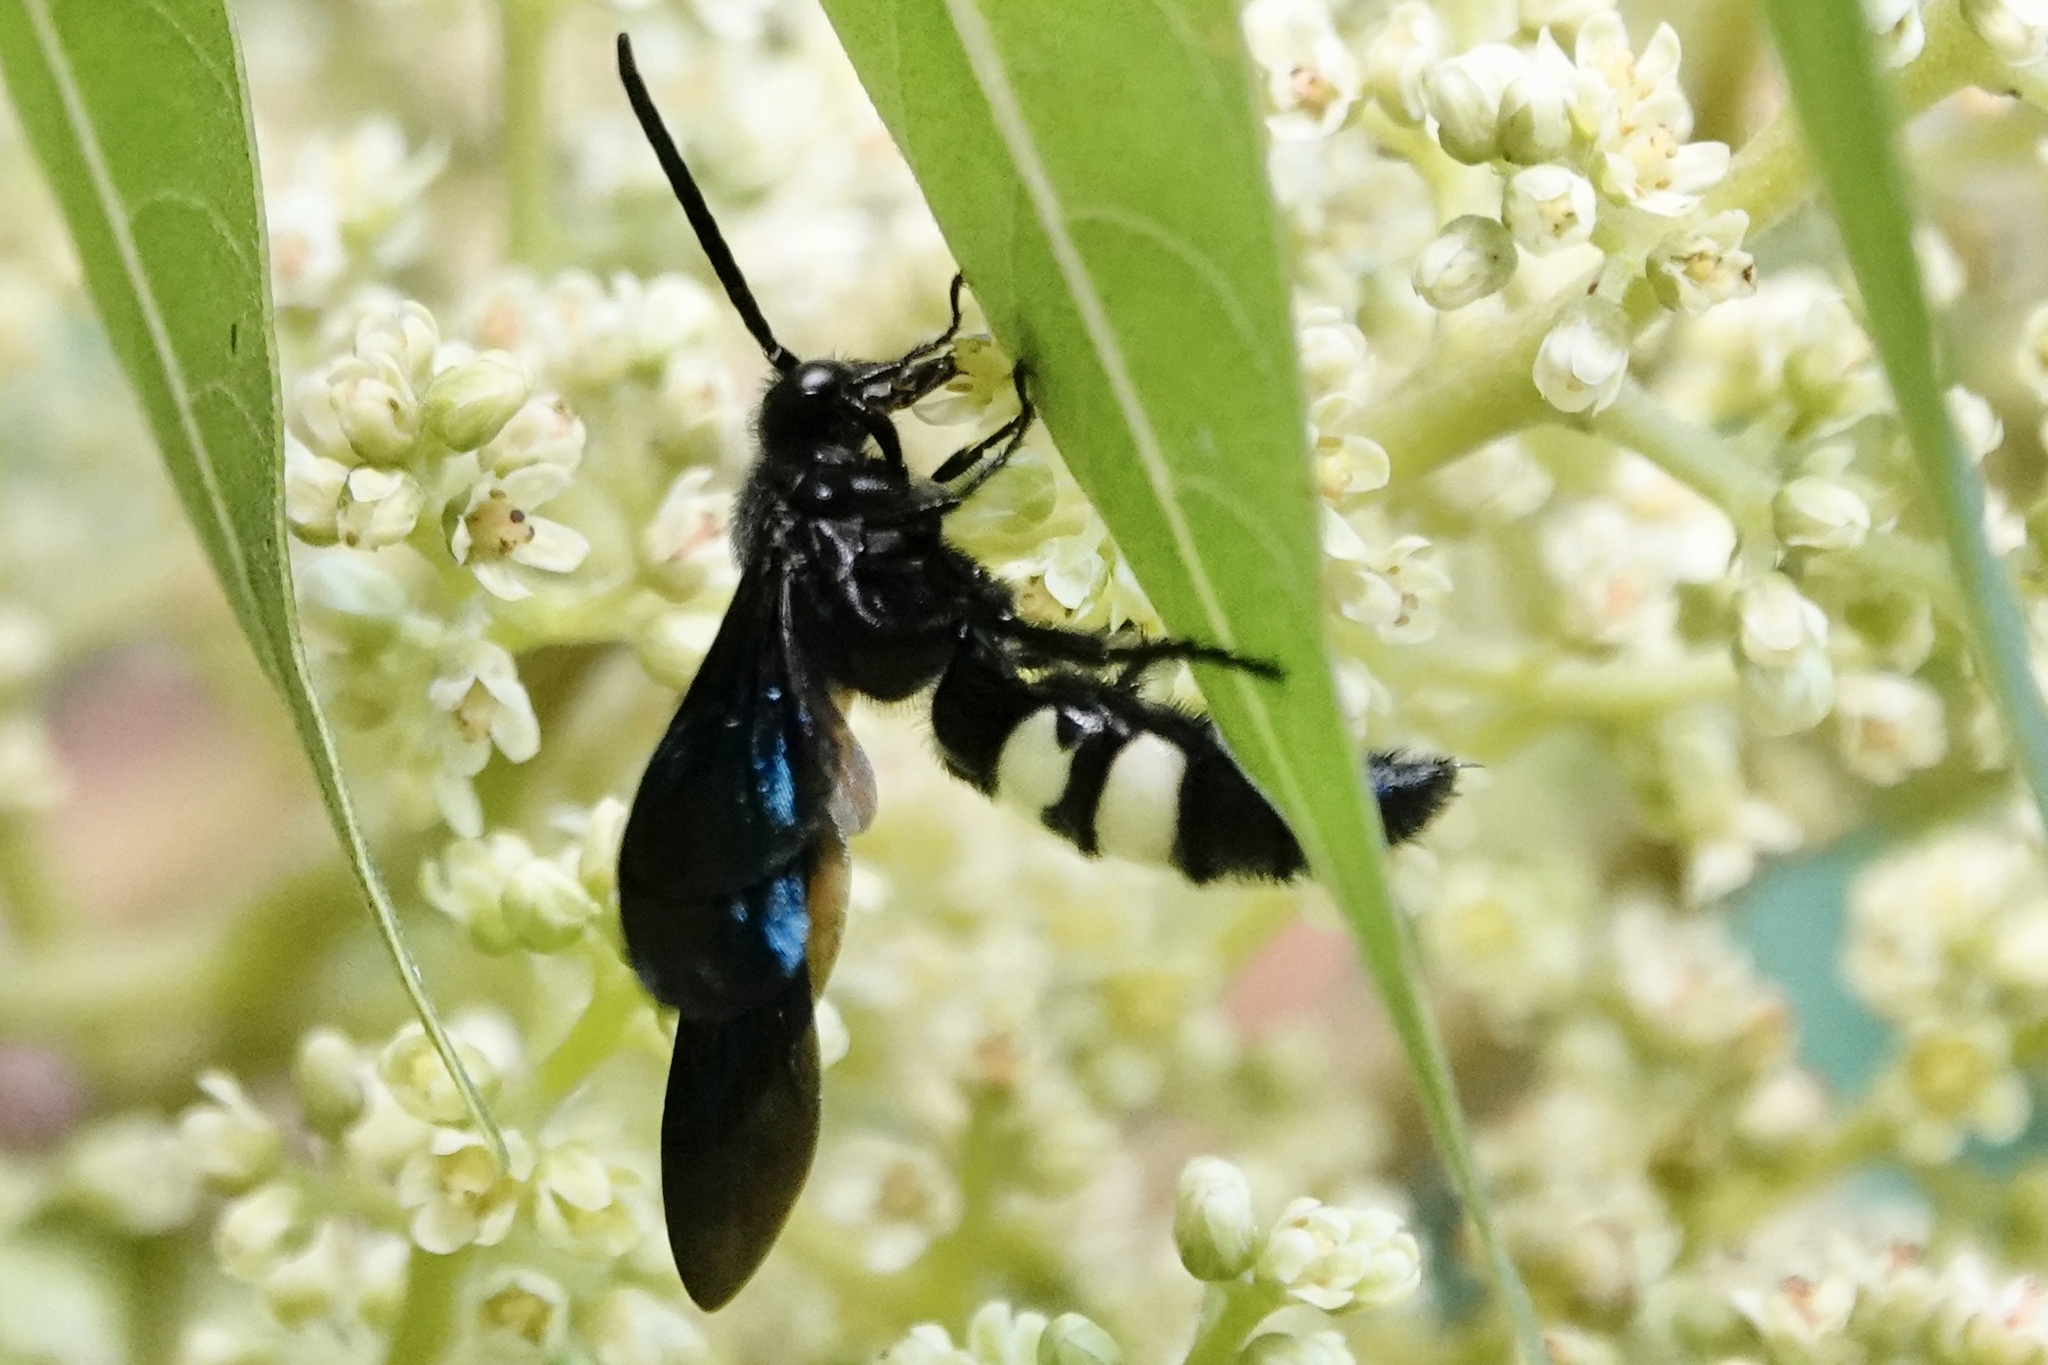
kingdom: Animalia
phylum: Arthropoda
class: Insecta
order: Hymenoptera
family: Scoliidae
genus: Scolia
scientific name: Scolia bicincta
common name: Double-banded scoliid wasp
